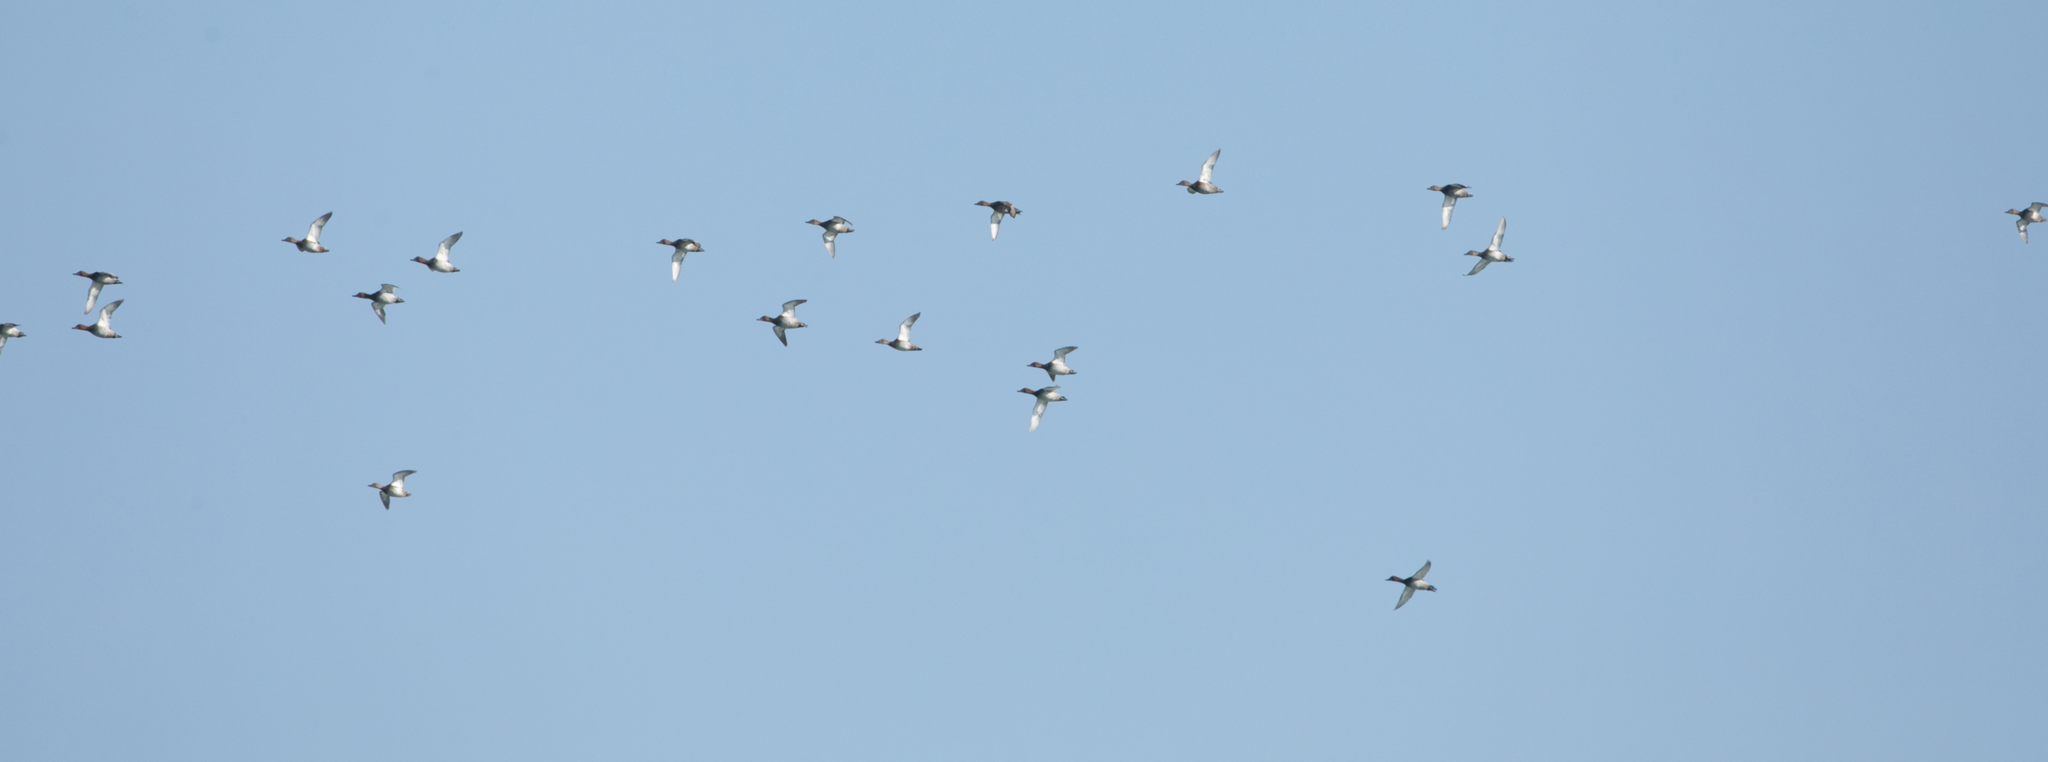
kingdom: Animalia
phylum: Chordata
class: Aves
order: Anseriformes
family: Anatidae
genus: Aythya
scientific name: Aythya ferina
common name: Common pochard
